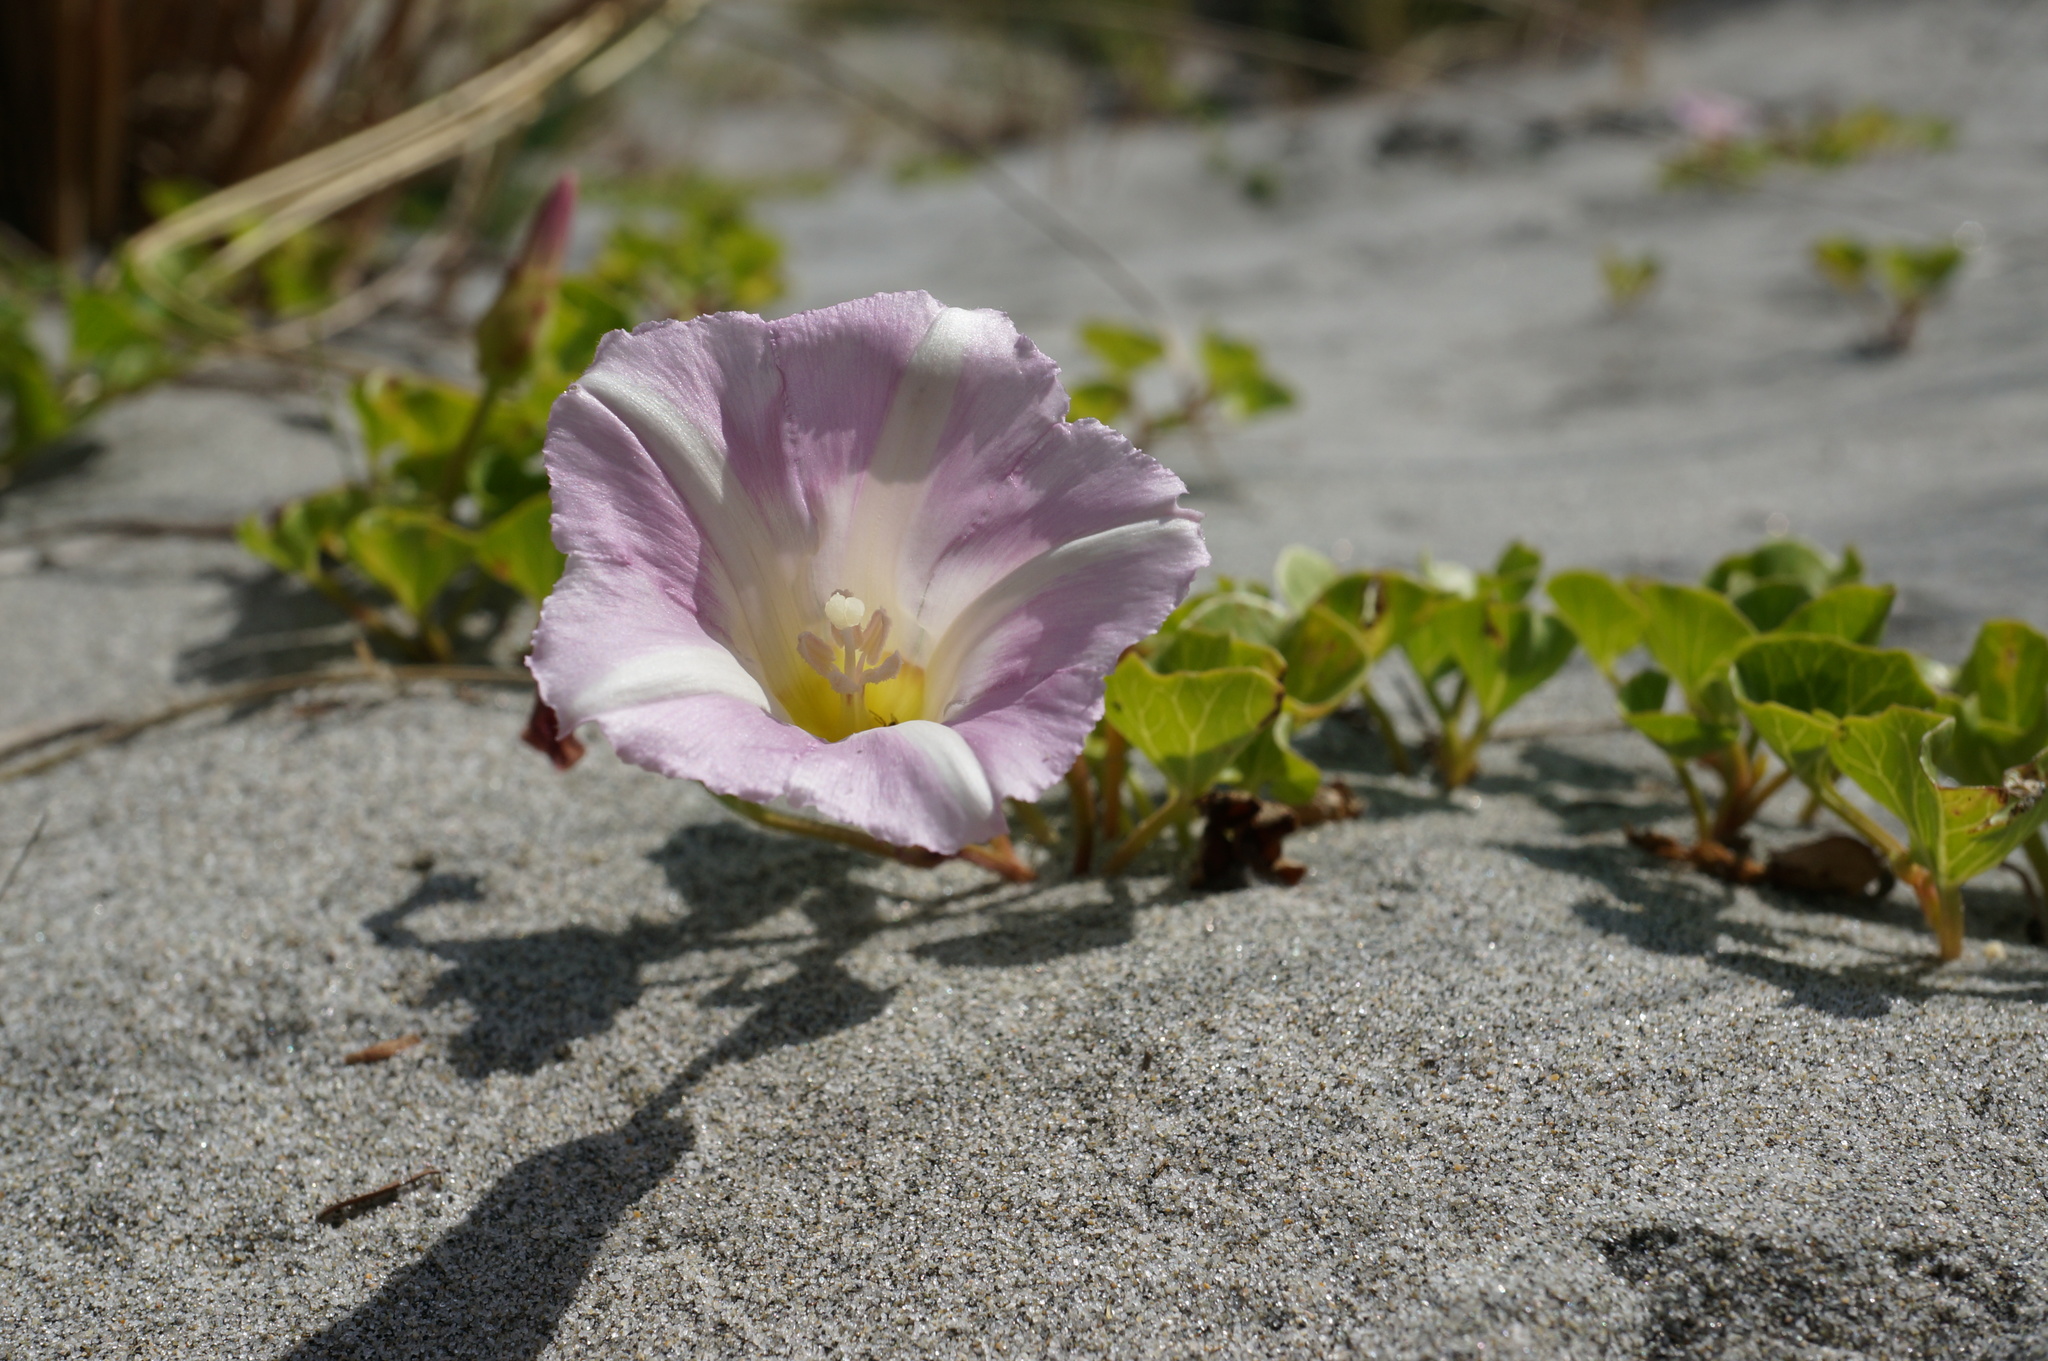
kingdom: Plantae
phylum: Tracheophyta
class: Magnoliopsida
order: Solanales
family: Convolvulaceae
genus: Calystegia
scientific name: Calystegia soldanella
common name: Sea bindweed
